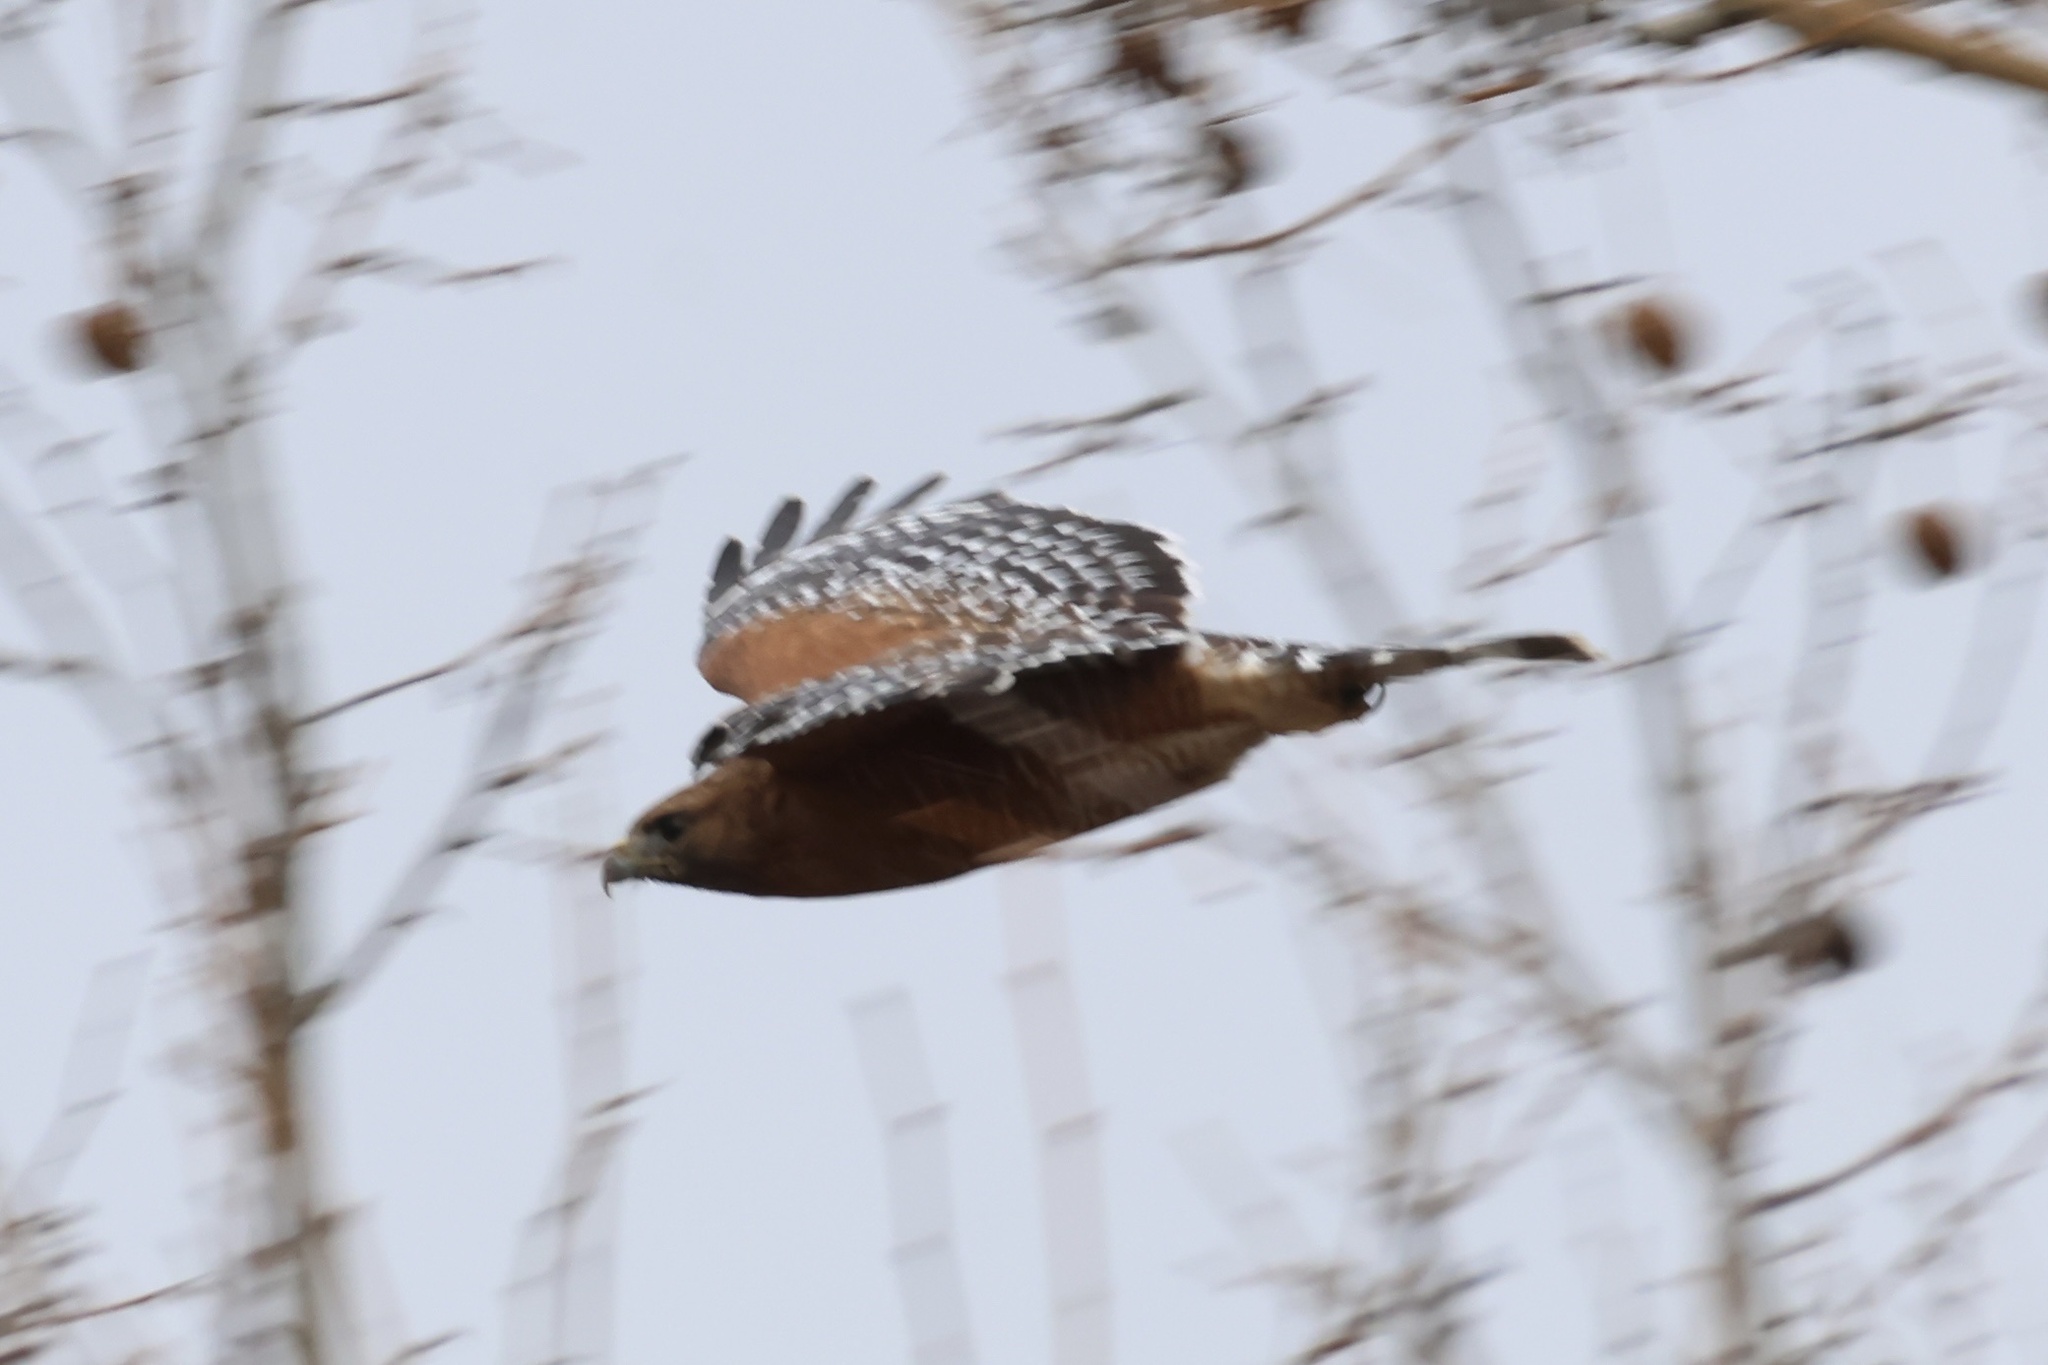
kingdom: Animalia
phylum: Chordata
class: Aves
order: Accipitriformes
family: Accipitridae
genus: Buteo
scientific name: Buteo lineatus
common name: Red-shouldered hawk
